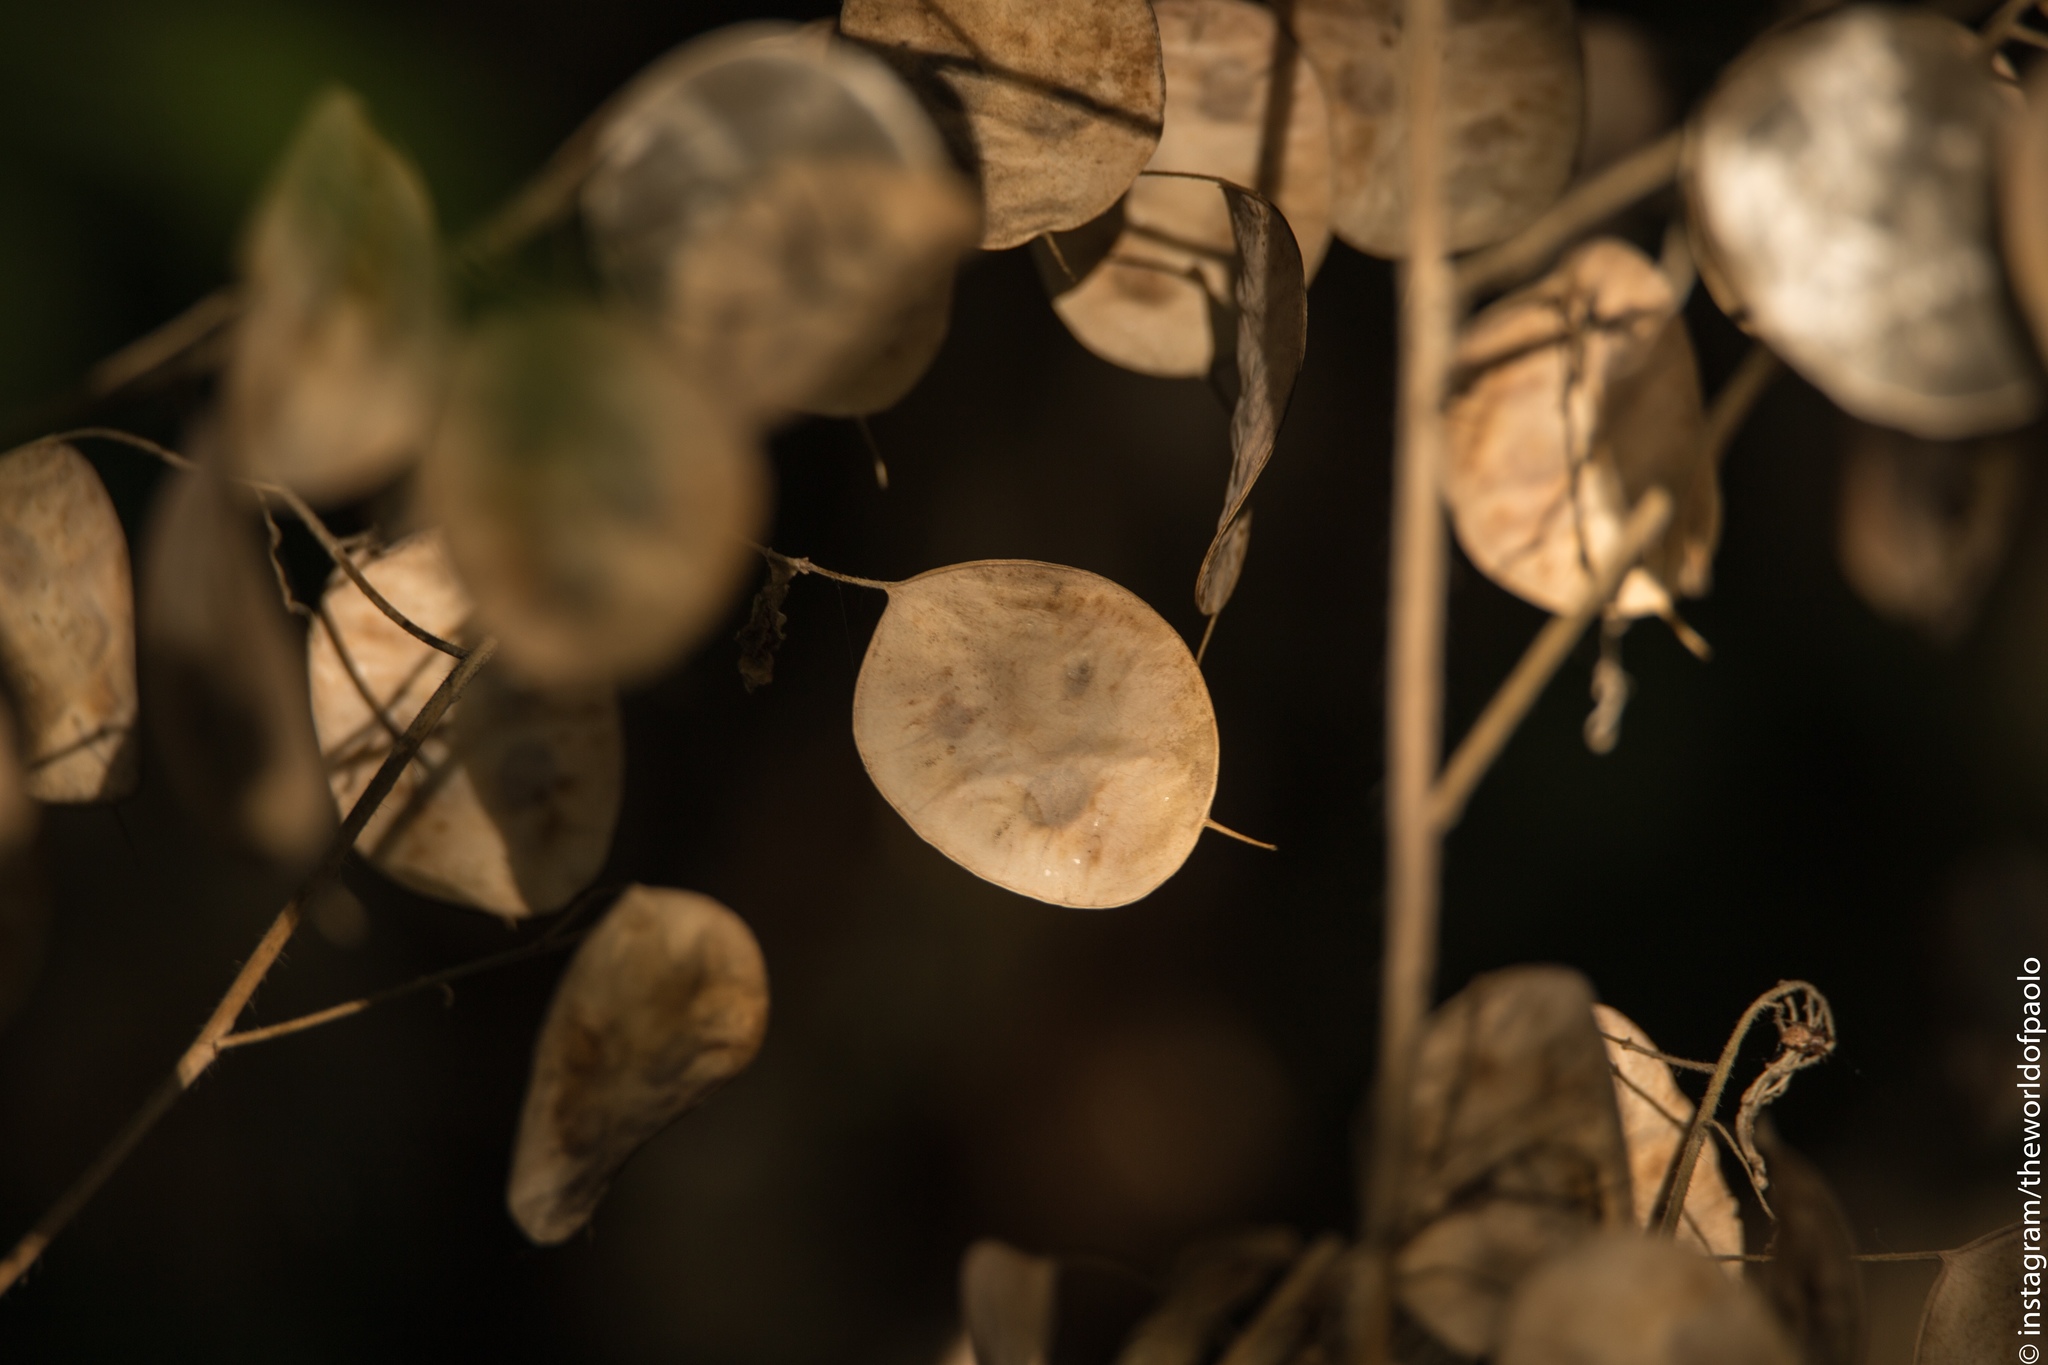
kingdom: Plantae
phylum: Tracheophyta
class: Magnoliopsida
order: Brassicales
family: Brassicaceae
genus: Lunaria
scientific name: Lunaria annua
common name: Honesty
